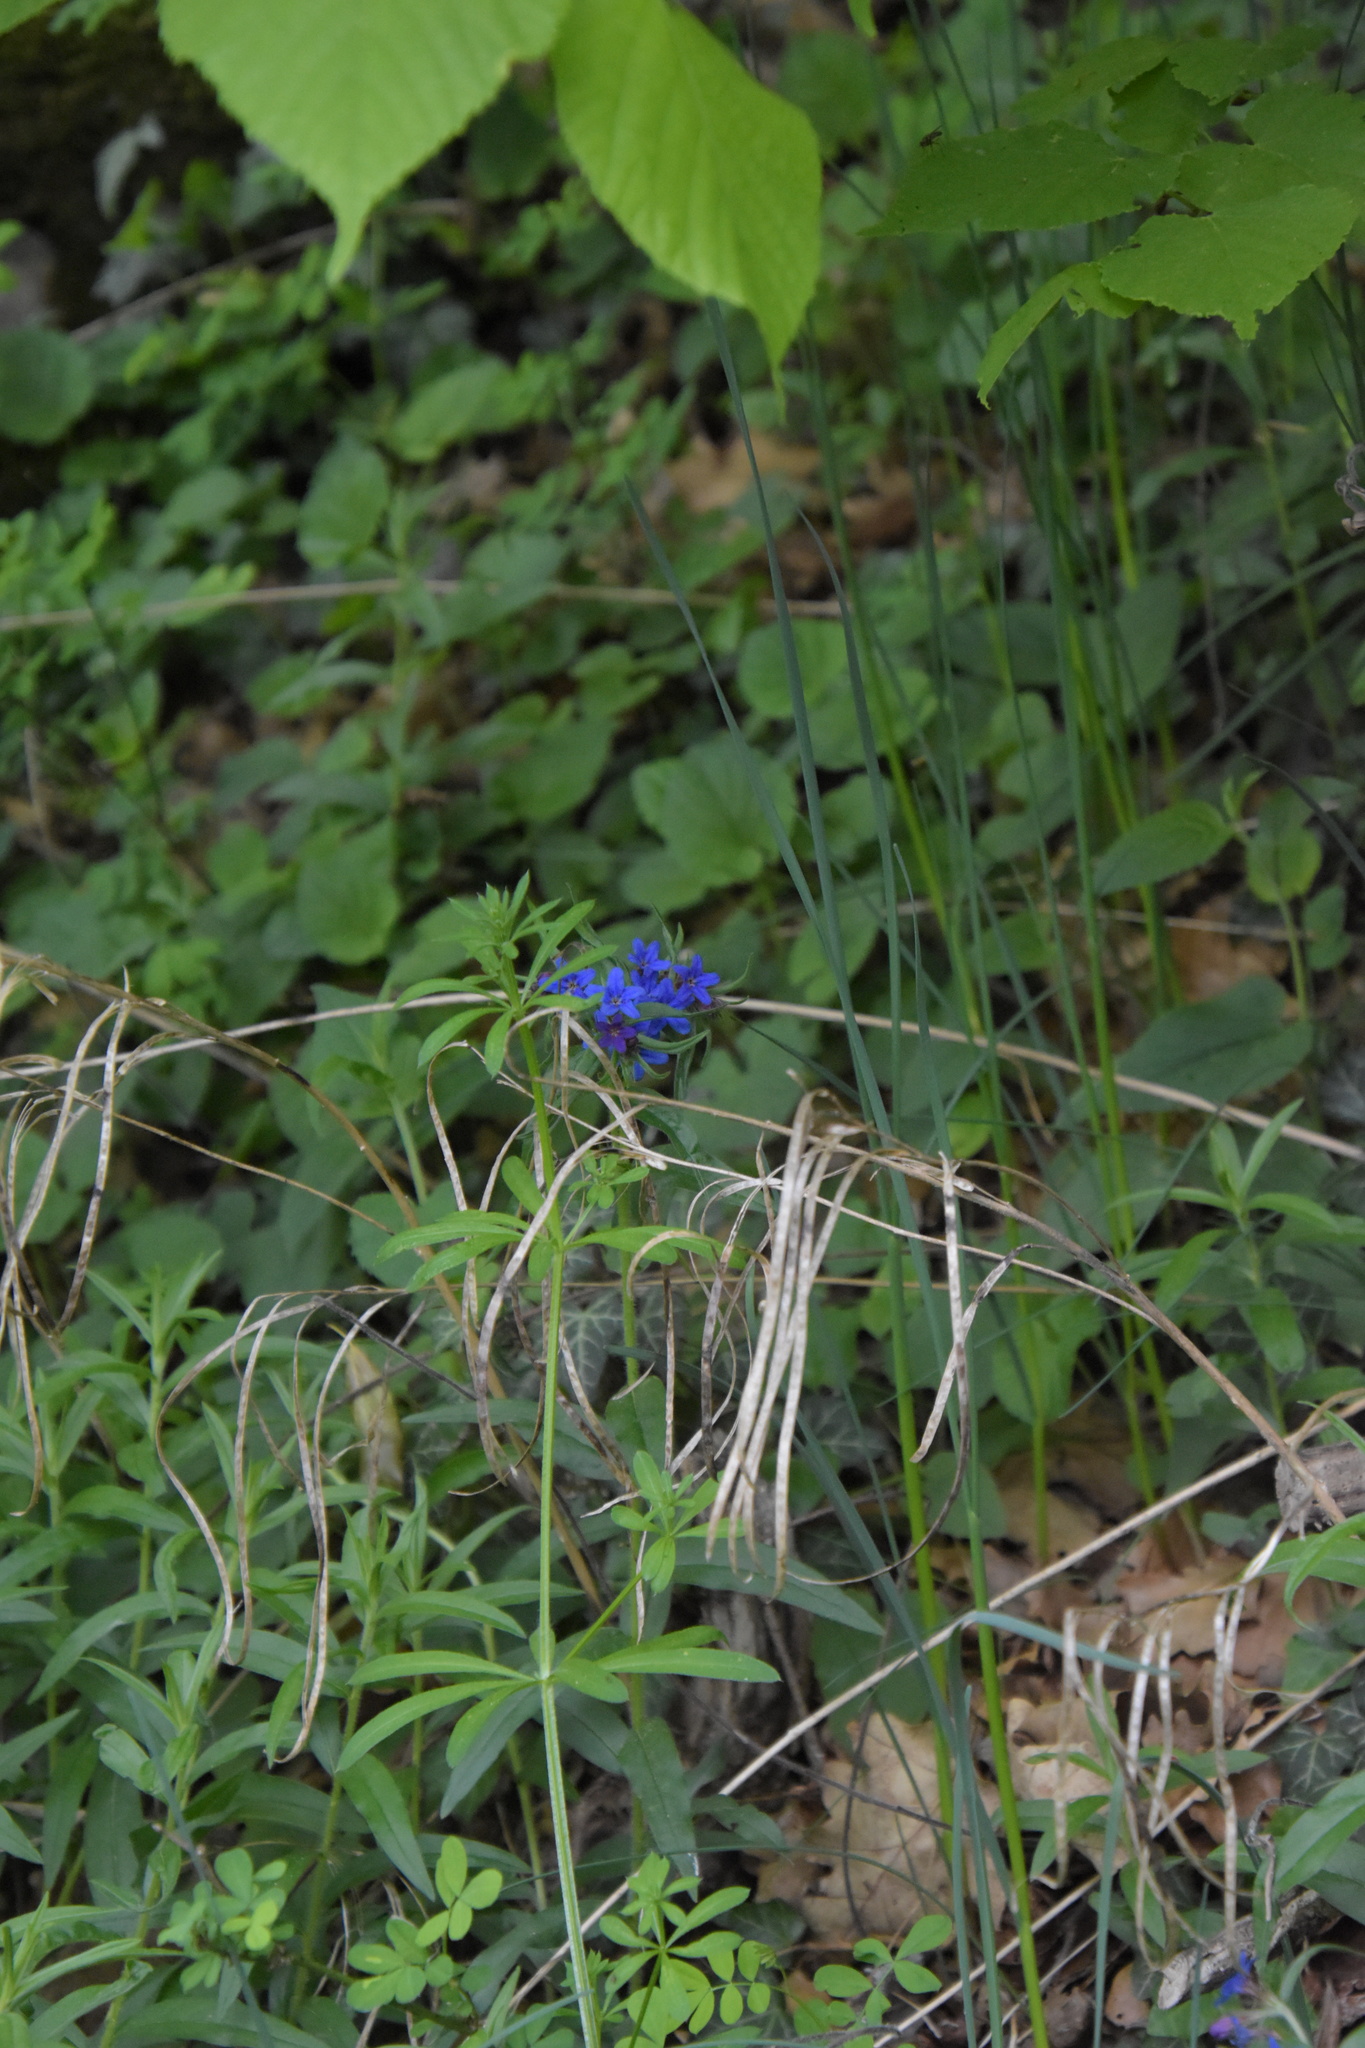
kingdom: Plantae
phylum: Tracheophyta
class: Magnoliopsida
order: Boraginales
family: Boraginaceae
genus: Aegonychon
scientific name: Aegonychon purpurocaeruleum
